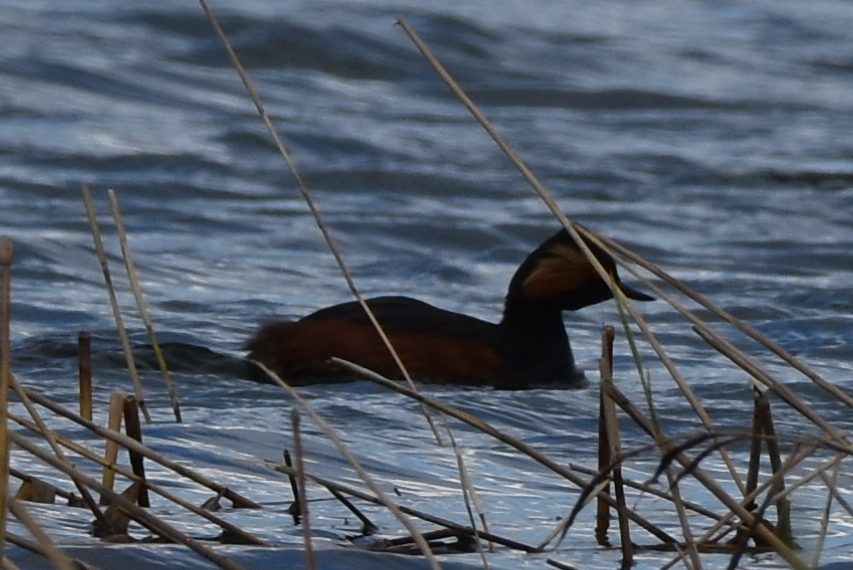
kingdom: Animalia
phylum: Chordata
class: Aves
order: Podicipediformes
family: Podicipedidae
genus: Podiceps
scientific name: Podiceps nigricollis
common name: Black-necked grebe
